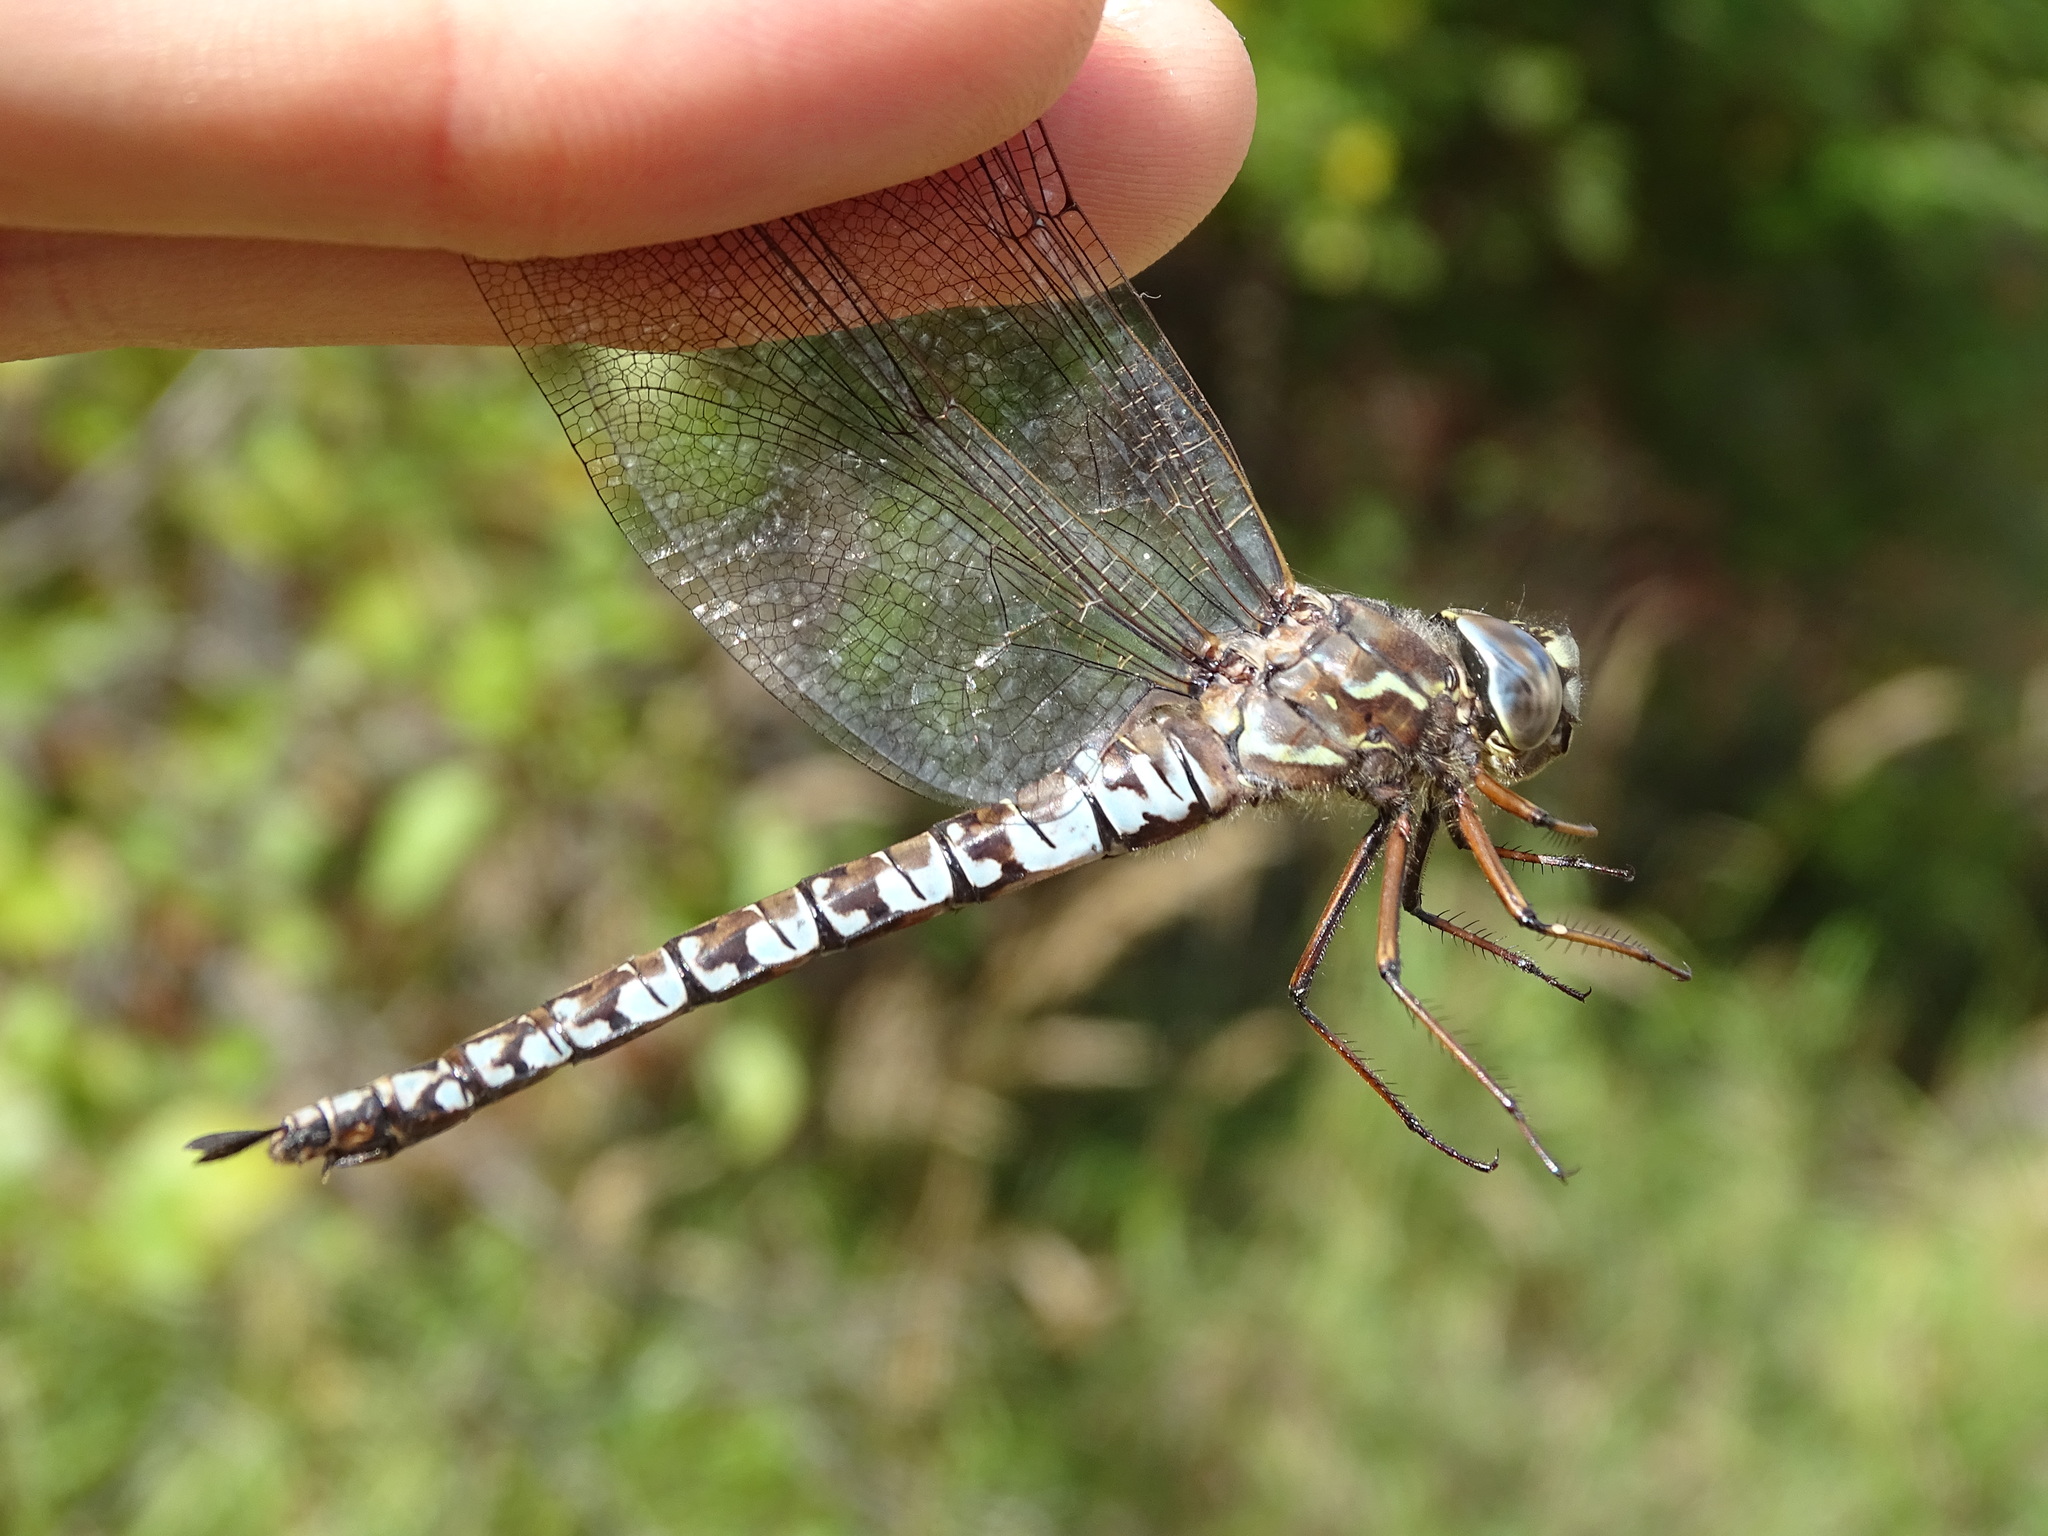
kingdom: Animalia
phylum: Arthropoda
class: Insecta
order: Odonata
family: Aeshnidae
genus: Aeshna
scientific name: Aeshna sitchensis
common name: Zigzag darner
